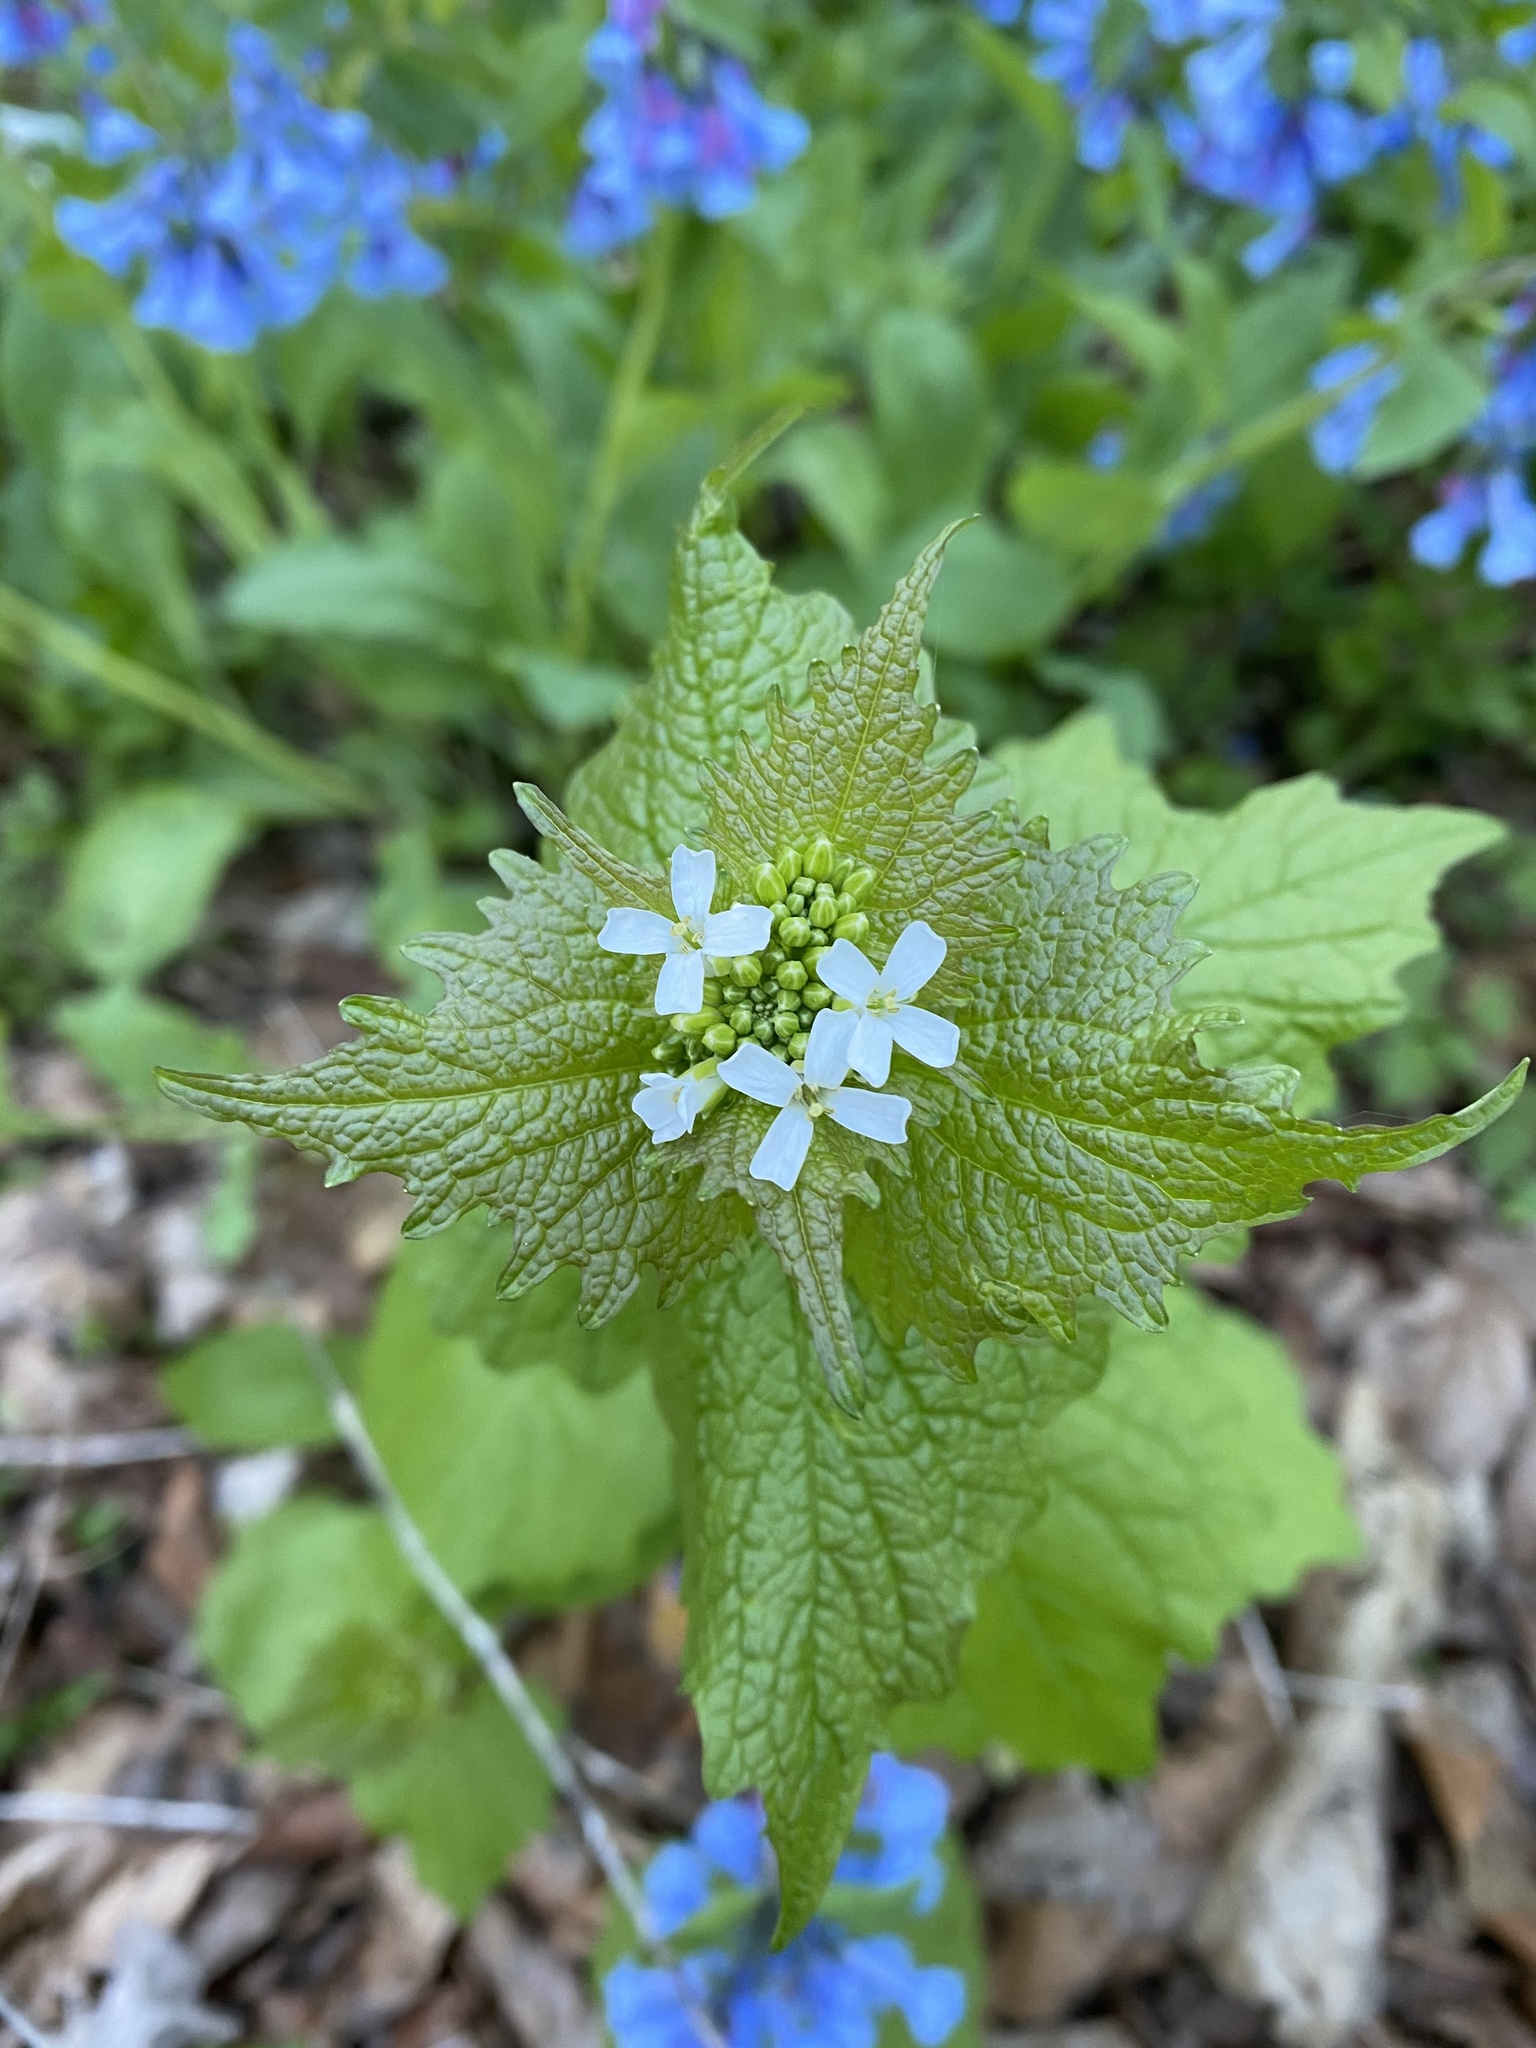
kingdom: Plantae
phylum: Tracheophyta
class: Magnoliopsida
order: Brassicales
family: Brassicaceae
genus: Alliaria
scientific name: Alliaria petiolata
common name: Garlic mustard
